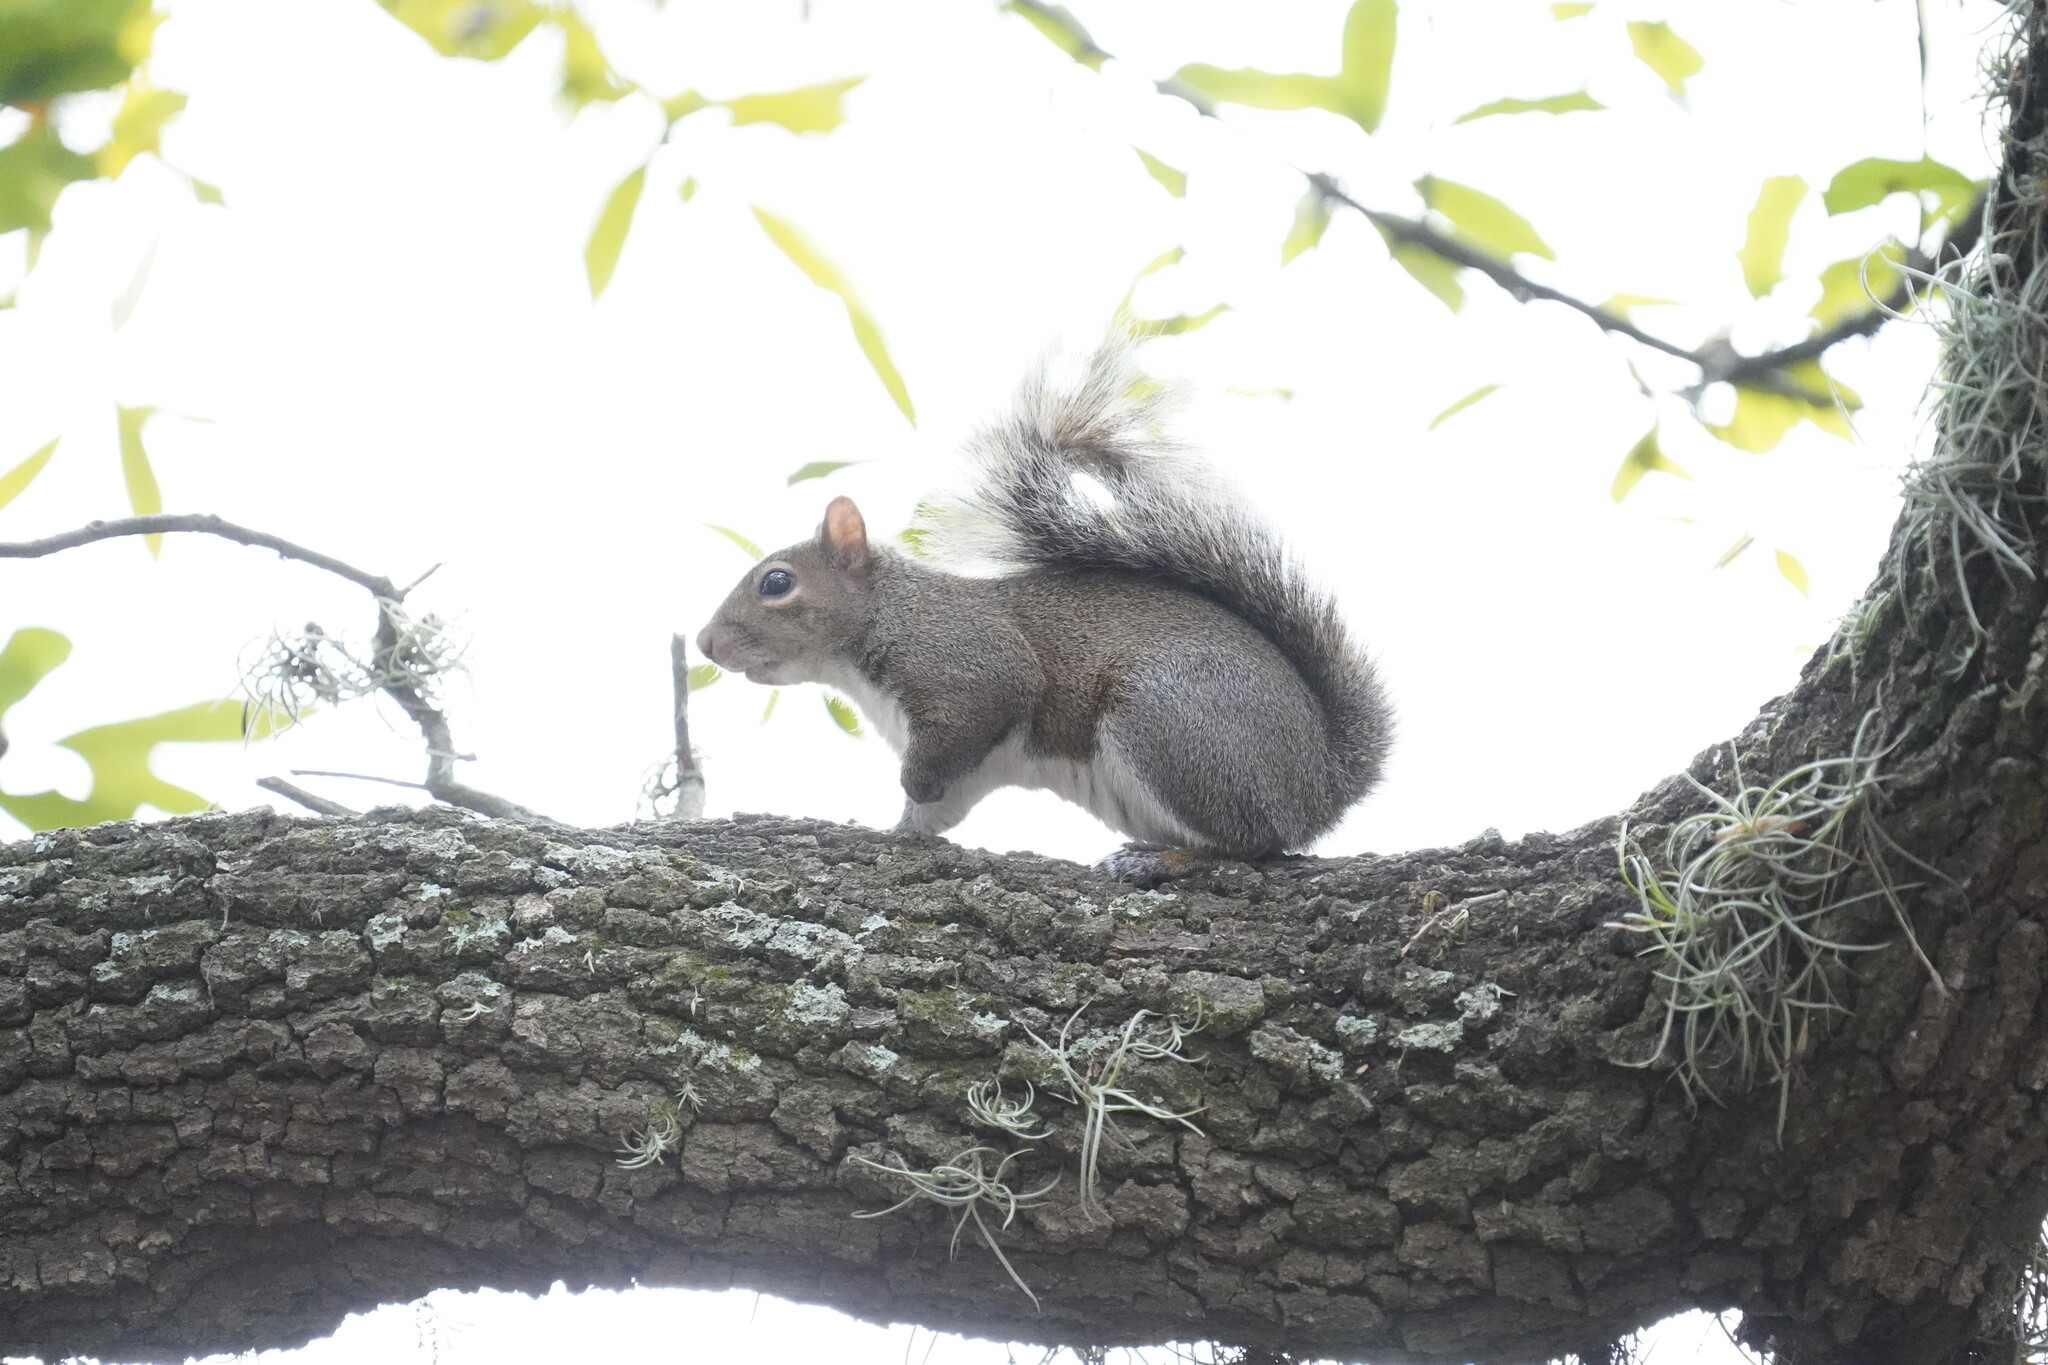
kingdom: Animalia
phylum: Chordata
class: Mammalia
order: Rodentia
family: Sciuridae
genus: Sciurus
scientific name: Sciurus carolinensis
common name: Eastern gray squirrel
